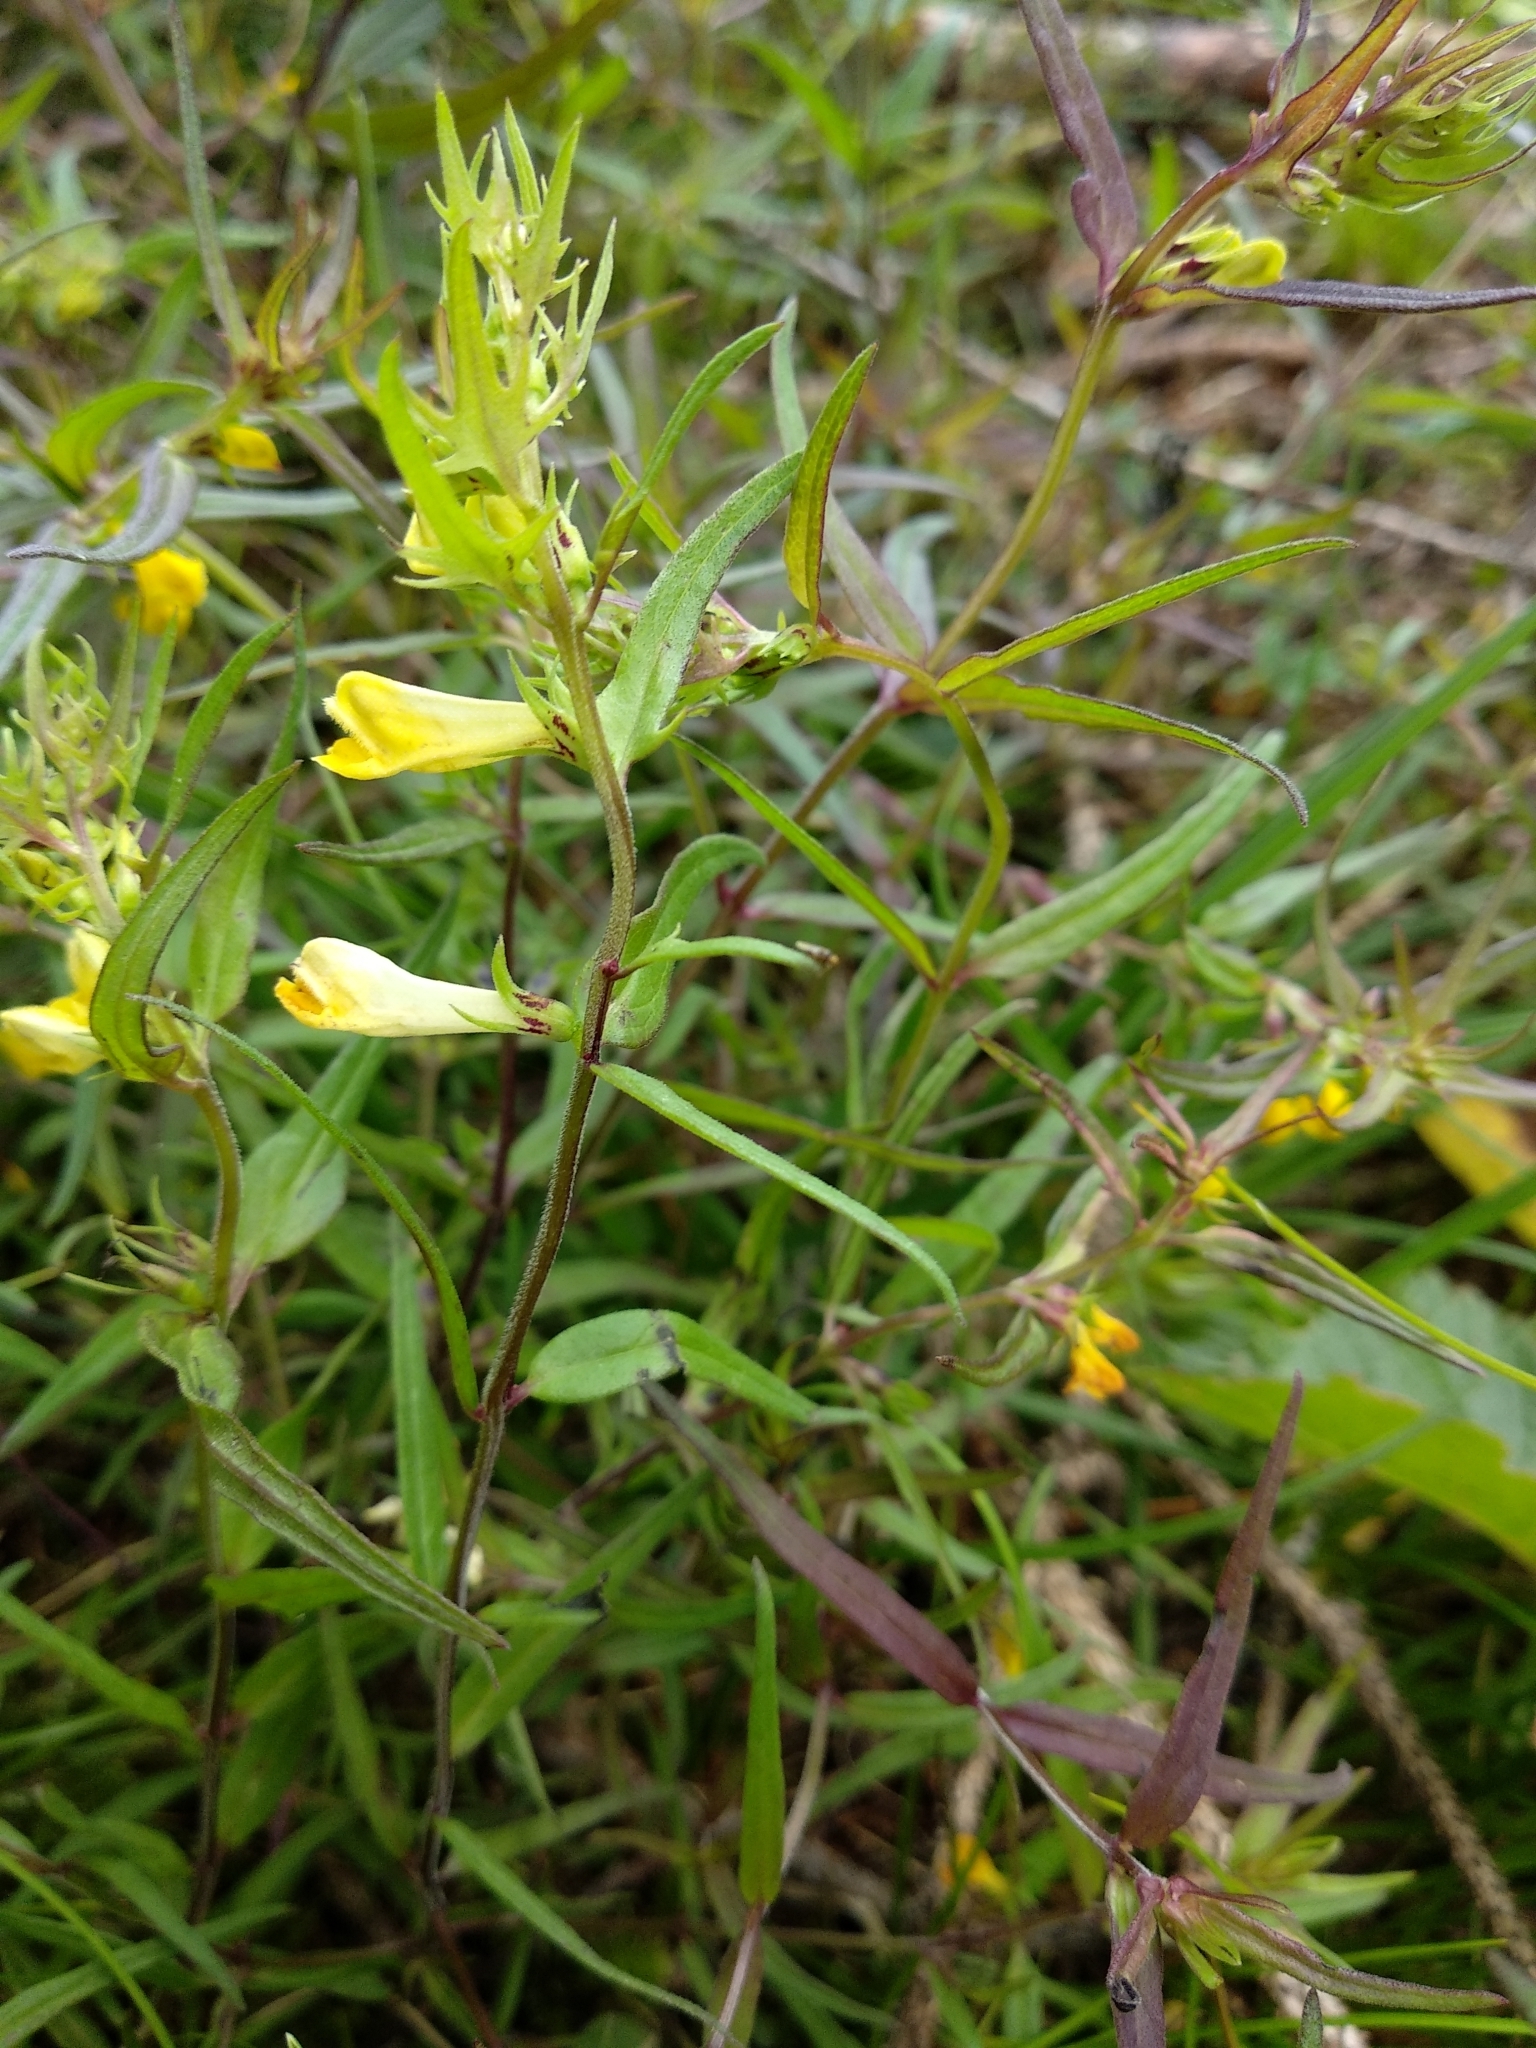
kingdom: Plantae
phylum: Tracheophyta
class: Magnoliopsida
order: Lamiales
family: Orobanchaceae
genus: Melampyrum
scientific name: Melampyrum pratense
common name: Common cow-wheat
